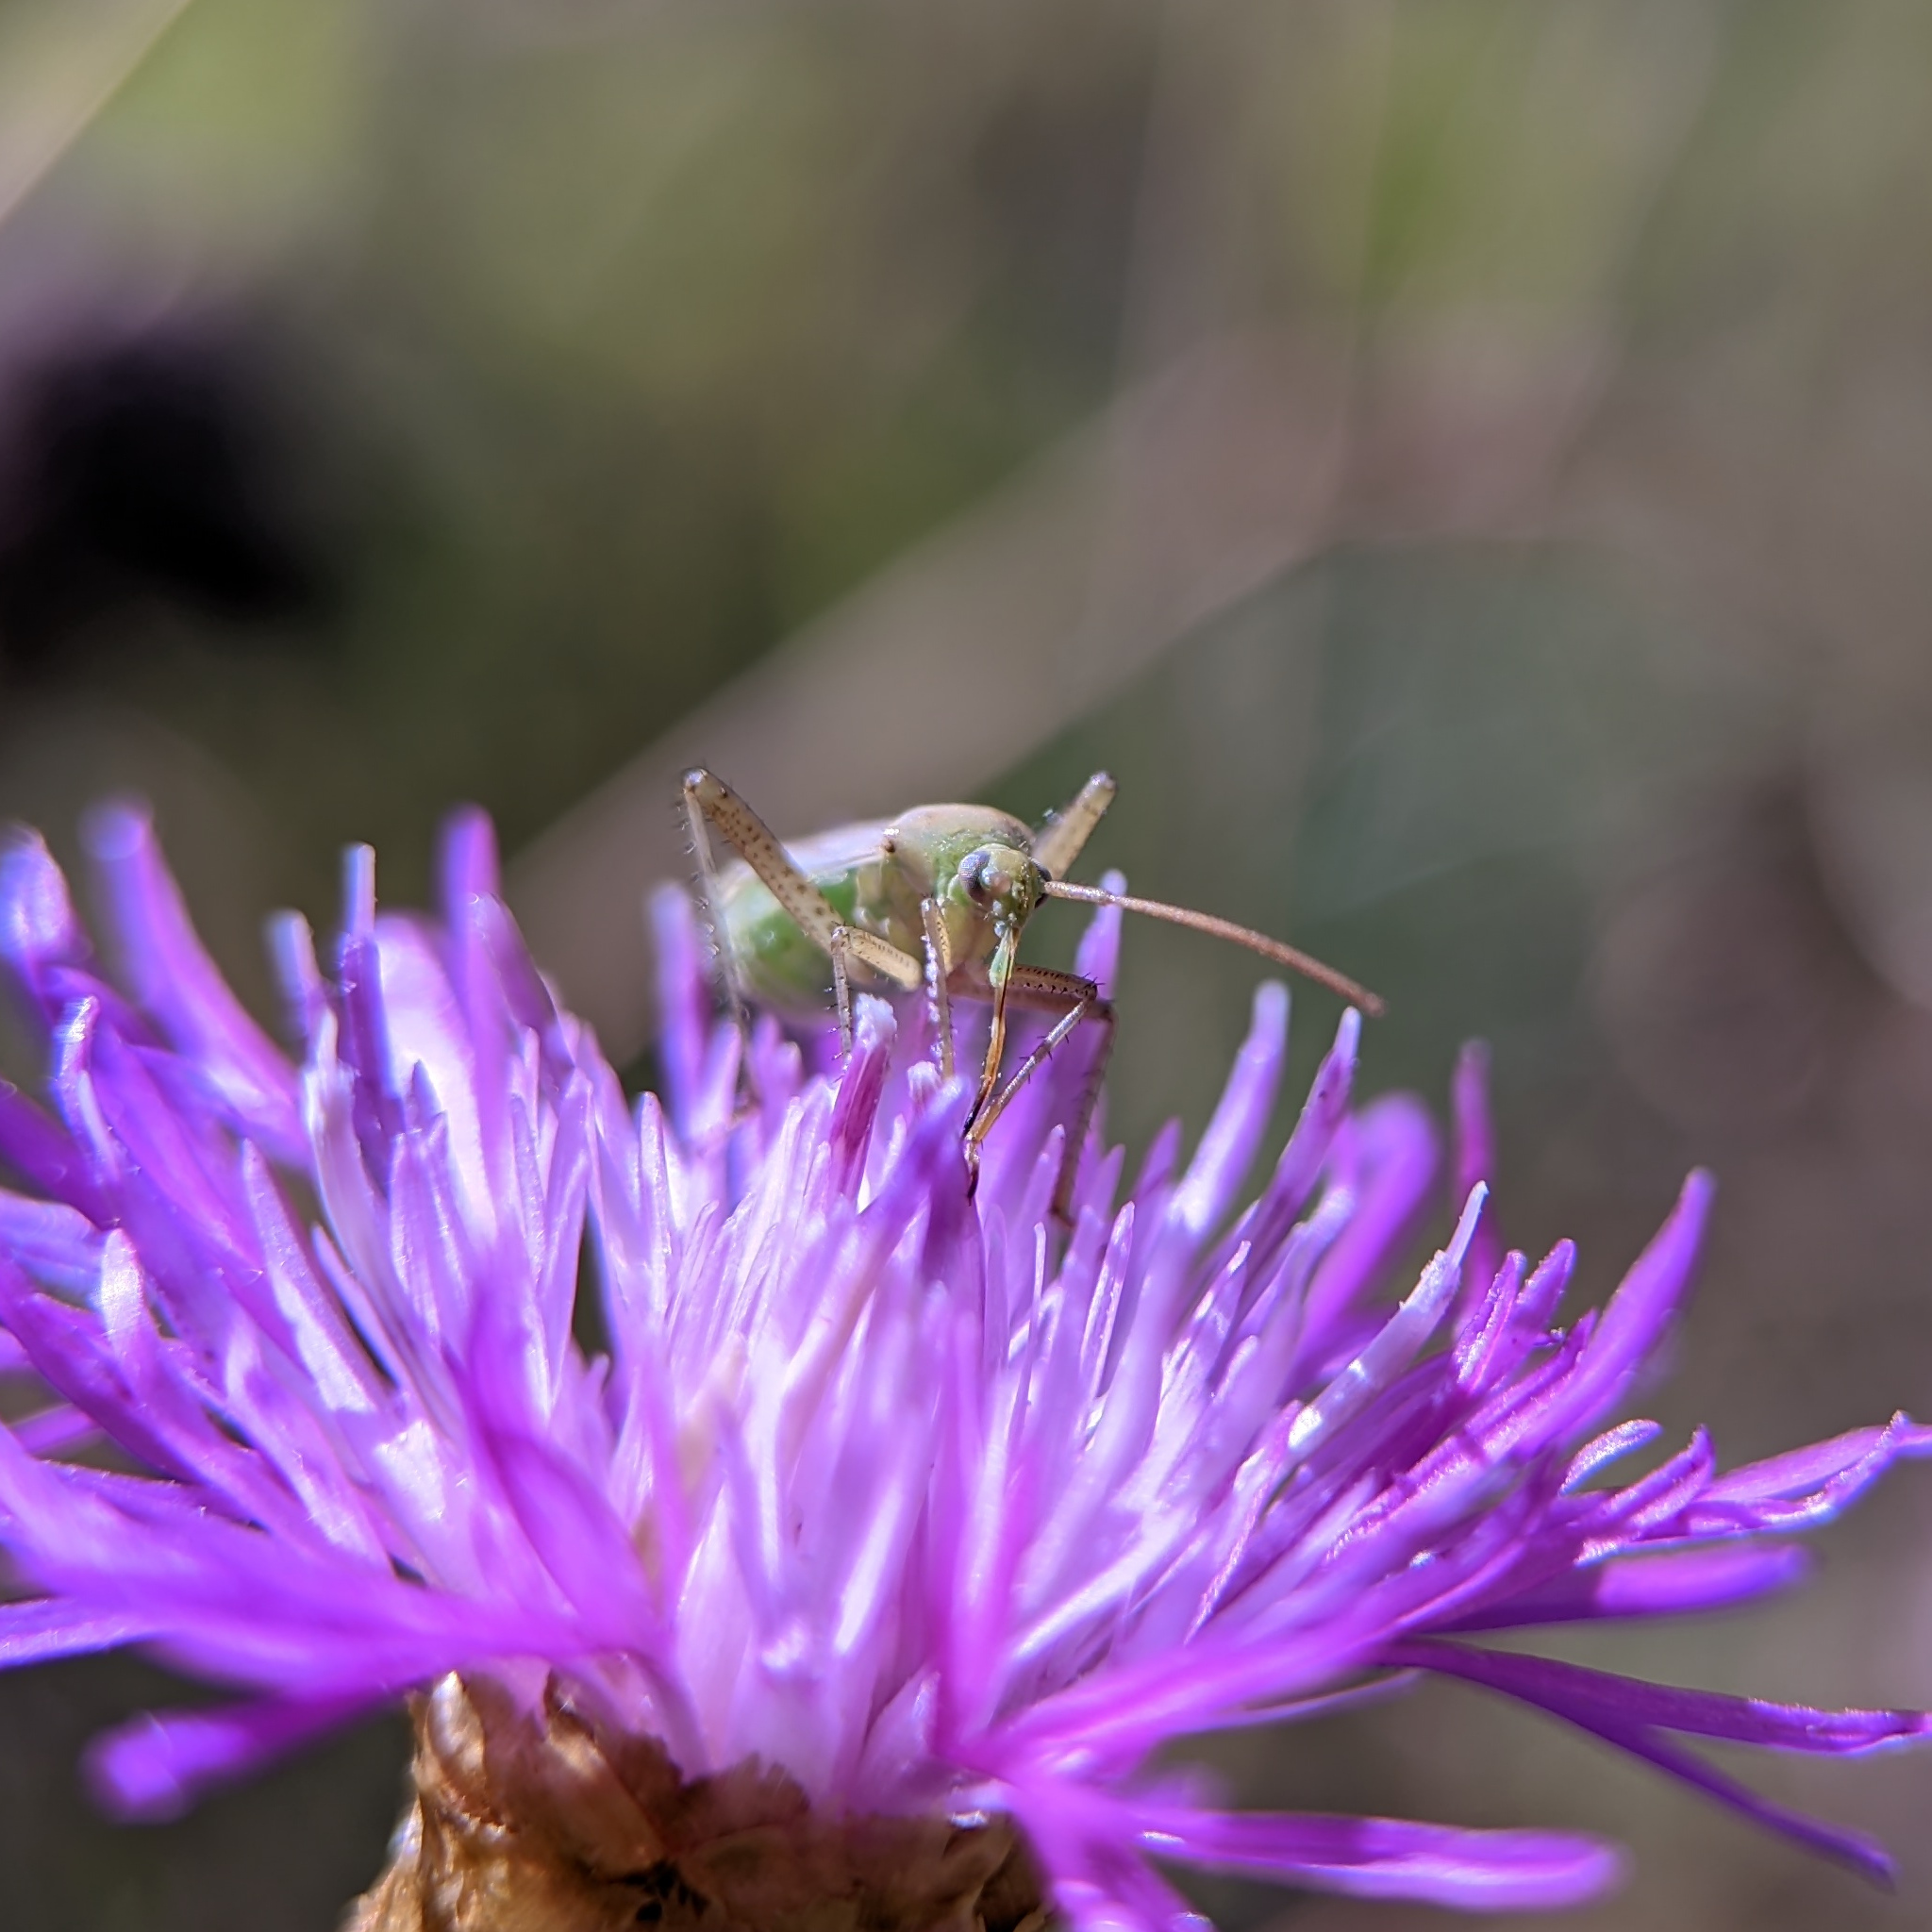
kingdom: Animalia
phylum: Arthropoda
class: Insecta
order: Hemiptera
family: Miridae
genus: Adelphocoris
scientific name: Adelphocoris lineolatus
